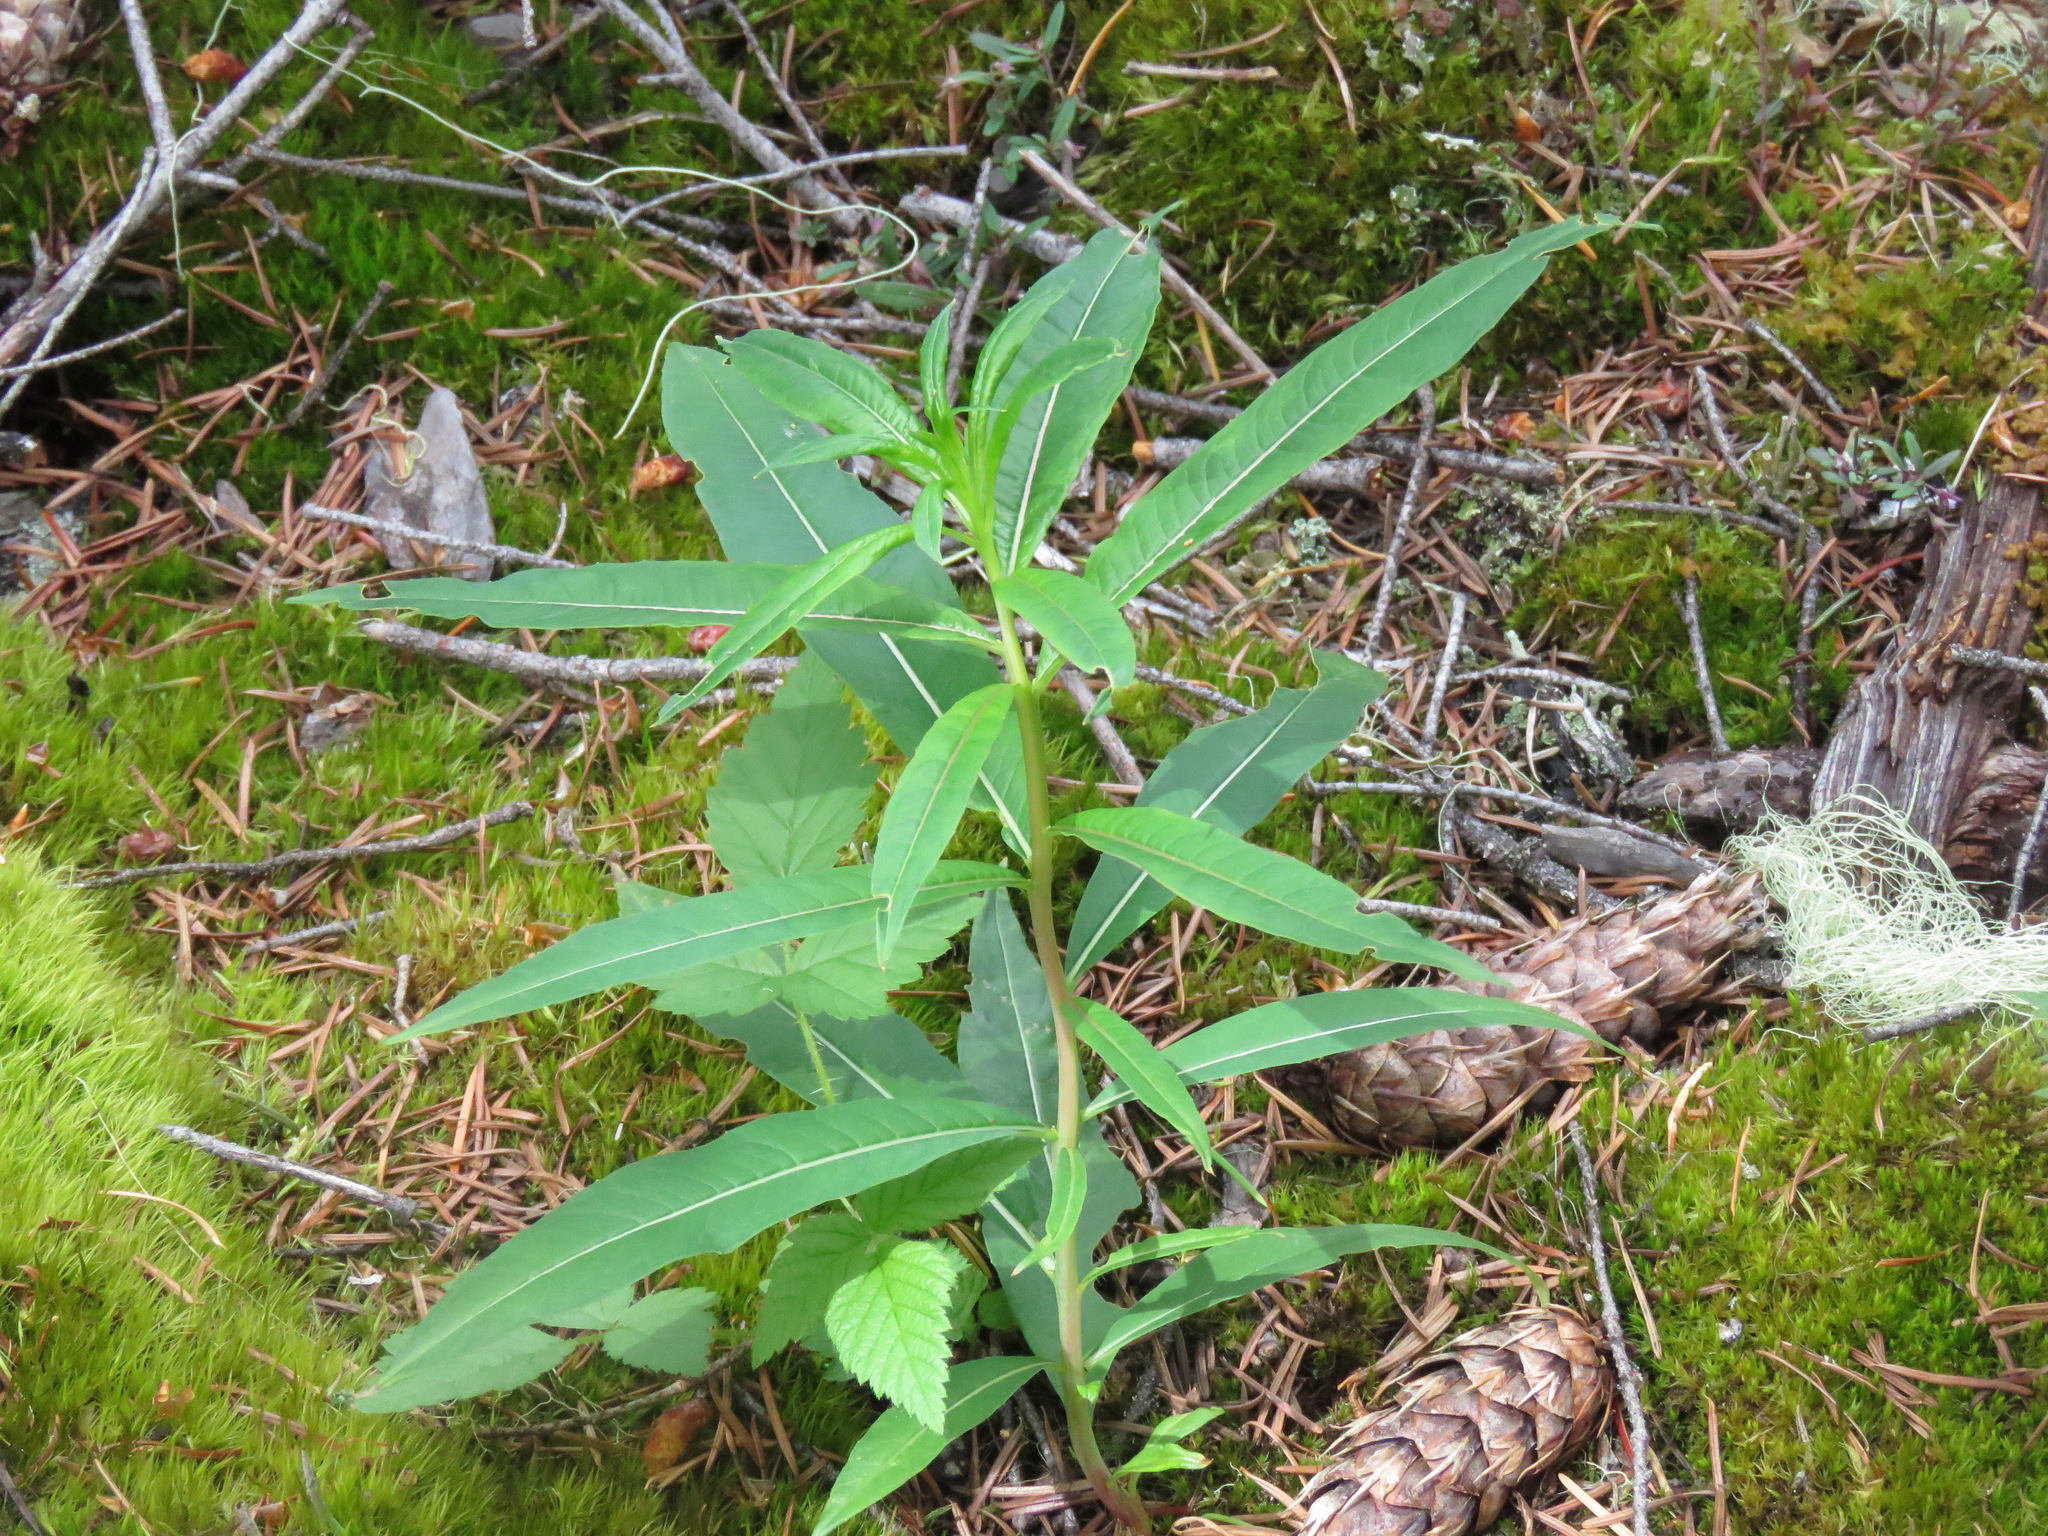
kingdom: Plantae
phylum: Tracheophyta
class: Magnoliopsida
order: Myrtales
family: Onagraceae
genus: Chamaenerion
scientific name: Chamaenerion angustifolium
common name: Fireweed
